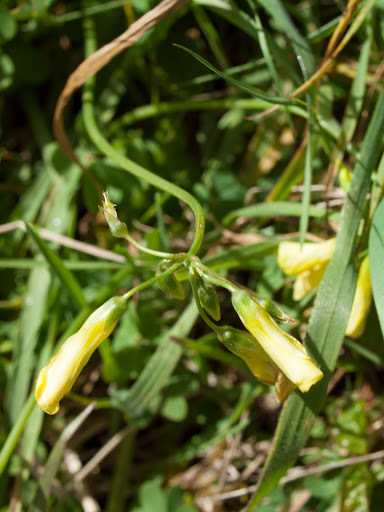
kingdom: Plantae
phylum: Tracheophyta
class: Magnoliopsida
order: Oxalidales
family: Oxalidaceae
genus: Oxalis
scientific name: Oxalis pes-caprae
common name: Bermuda-buttercup
